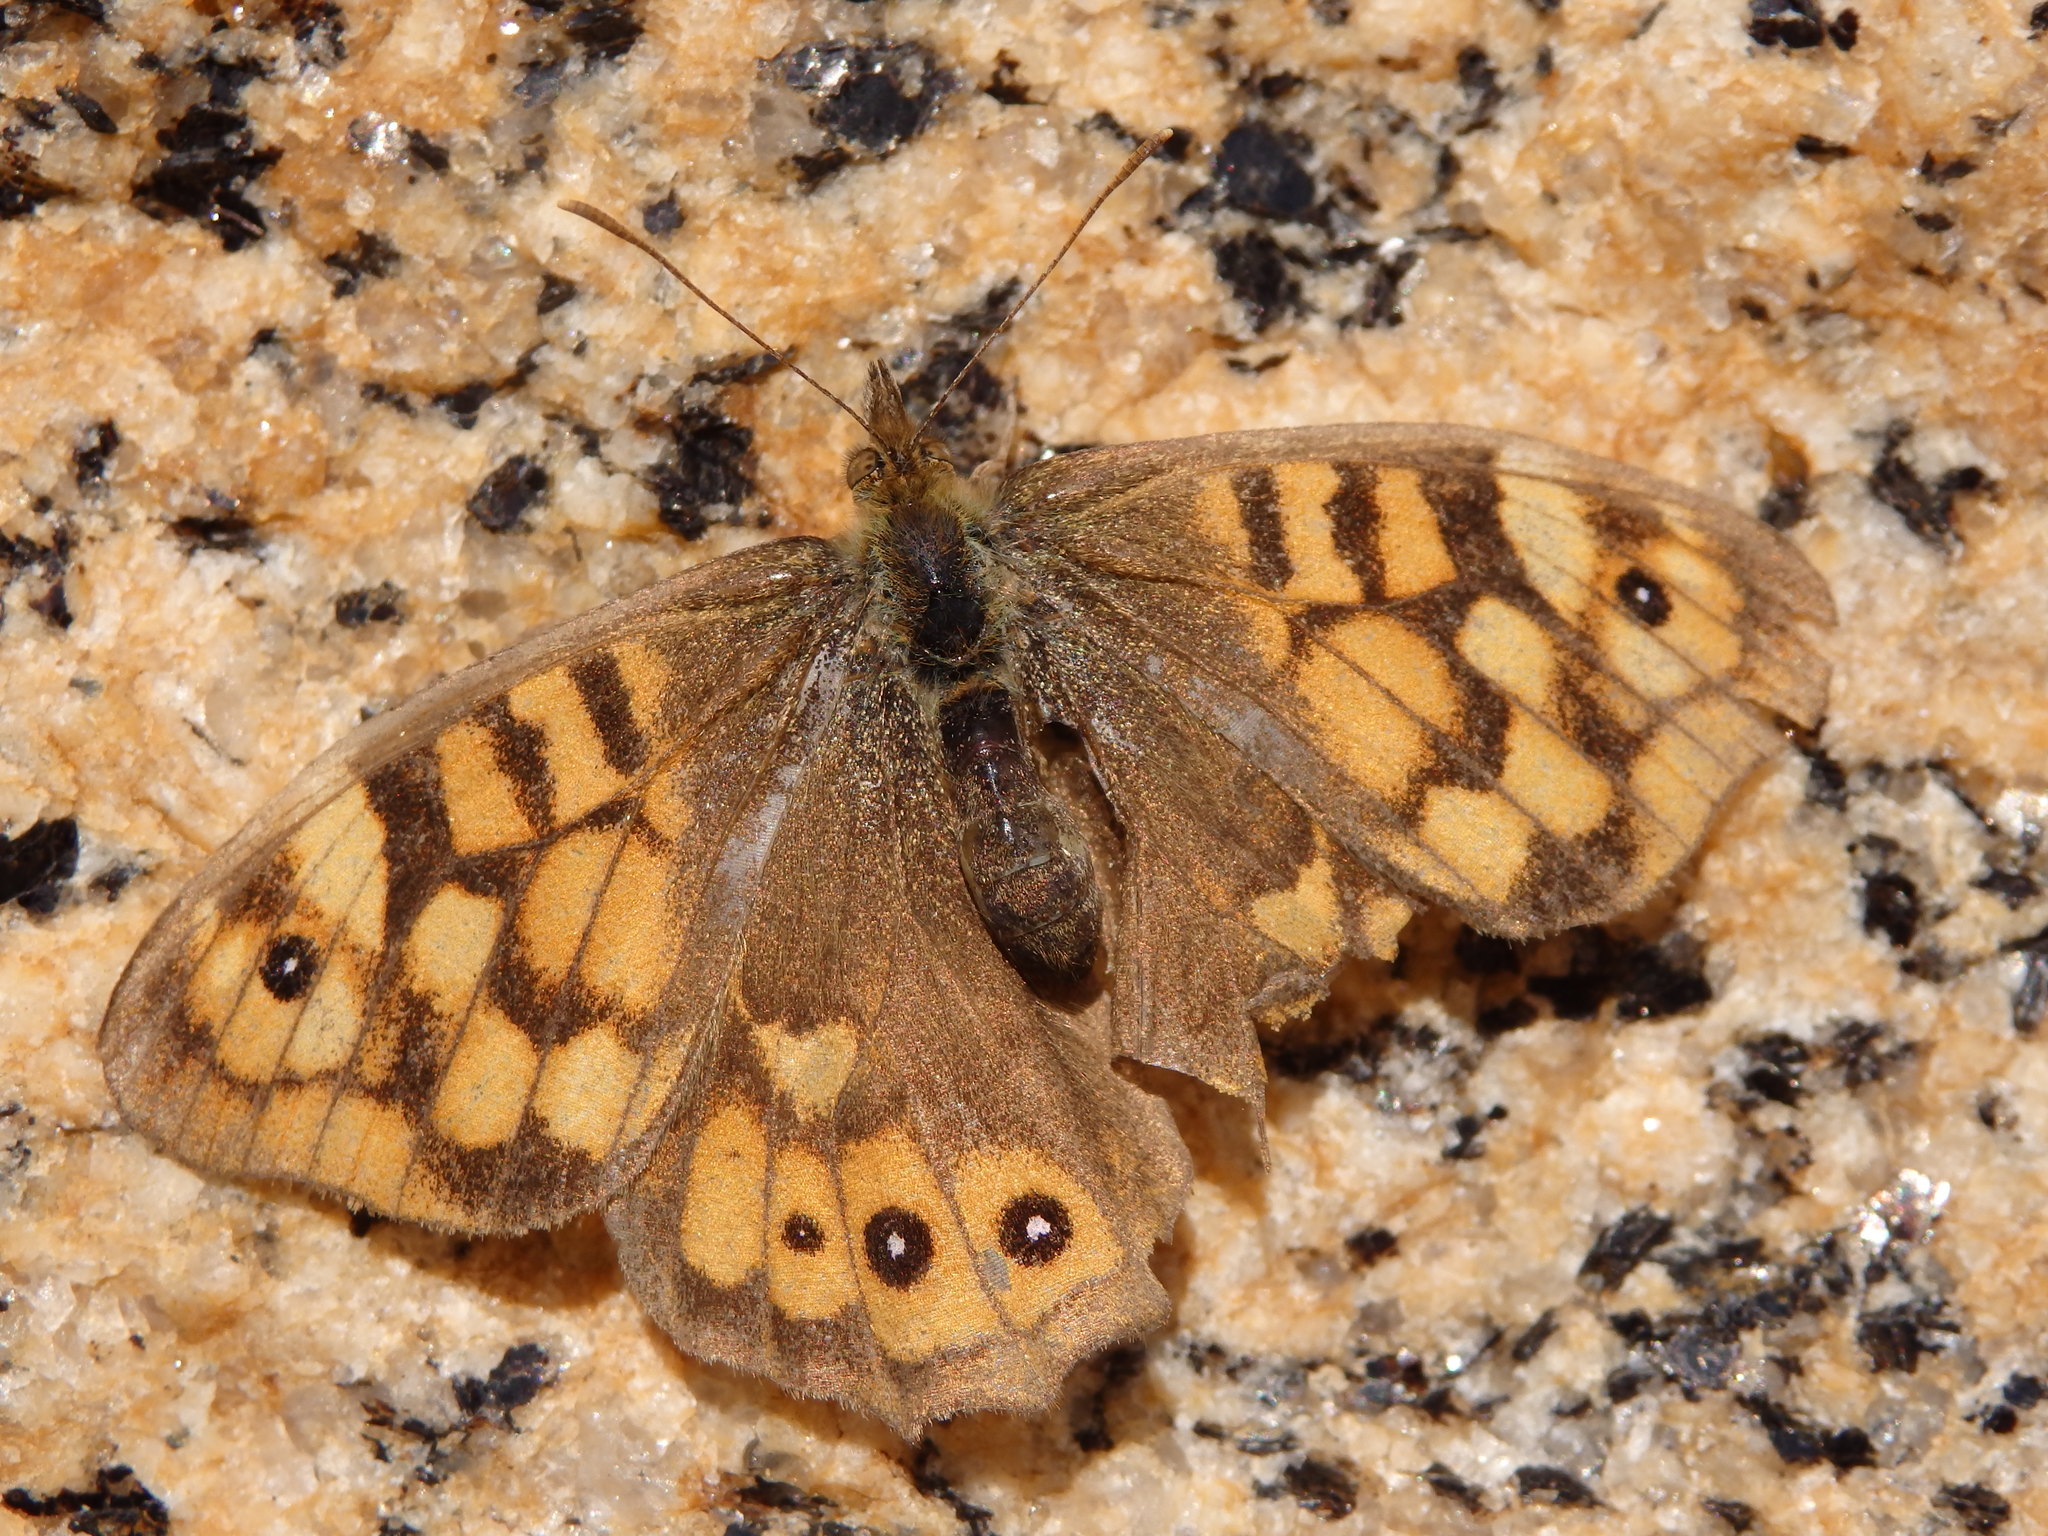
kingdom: Animalia
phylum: Arthropoda
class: Insecta
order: Lepidoptera
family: Nymphalidae
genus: Pararge
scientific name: Pararge aegeria
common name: Speckled wood
